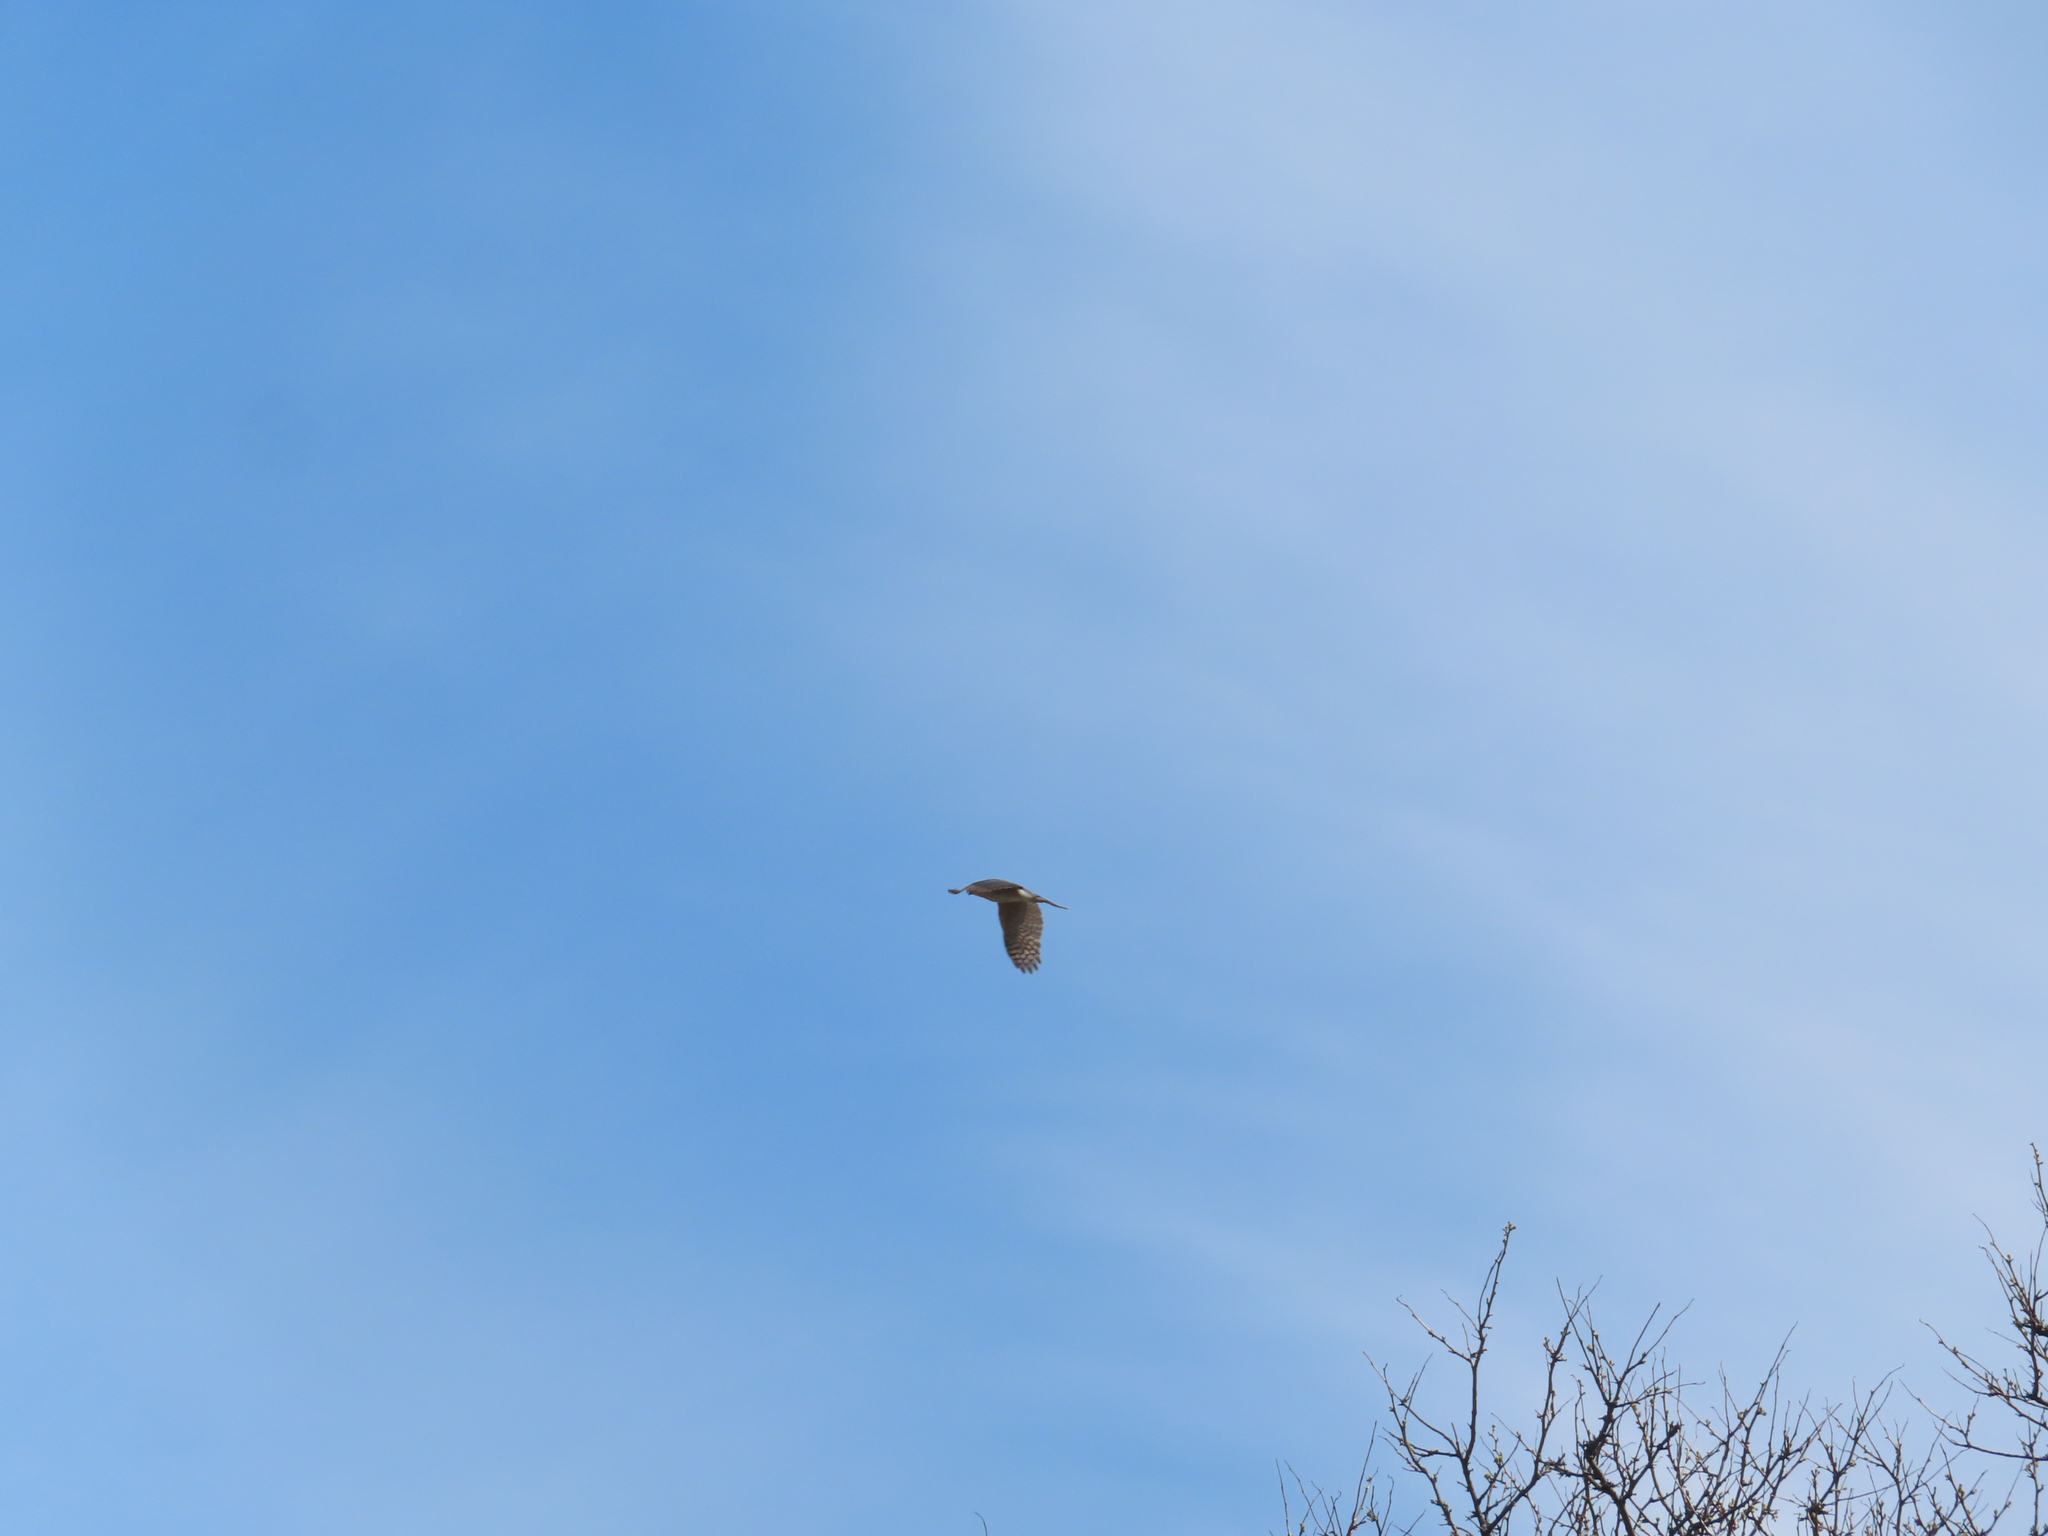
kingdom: Animalia
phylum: Chordata
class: Aves
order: Accipitriformes
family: Accipitridae
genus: Accipiter
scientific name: Accipiter cooperii
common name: Cooper's hawk
